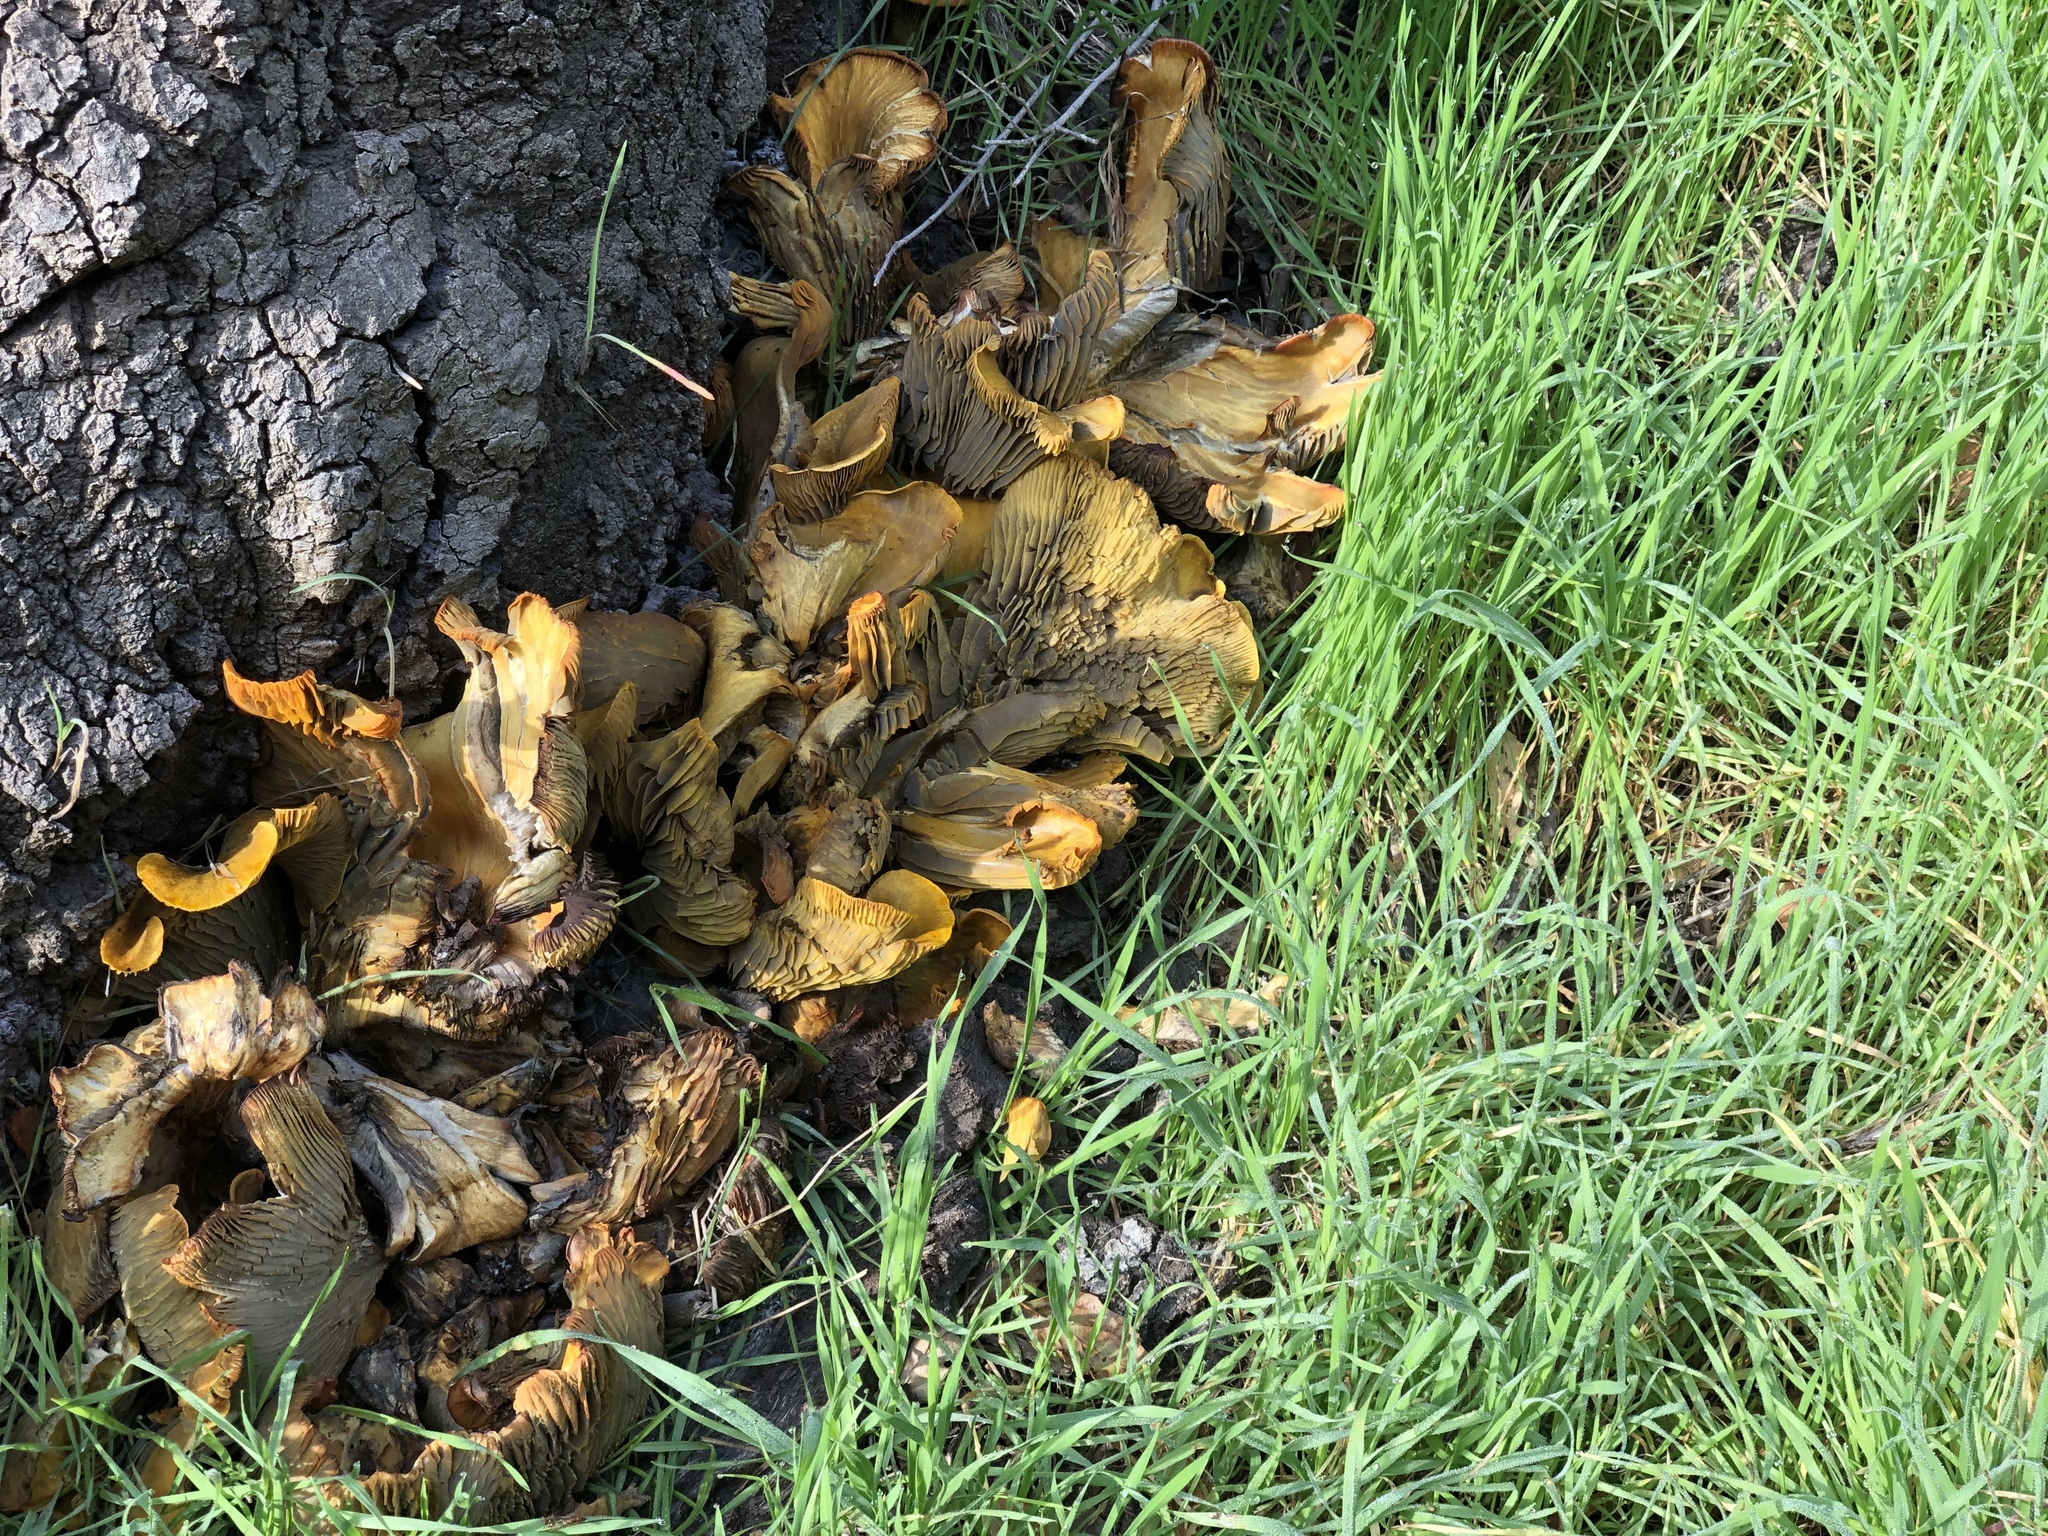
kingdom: Fungi
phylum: Basidiomycota
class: Agaricomycetes
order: Agaricales
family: Omphalotaceae
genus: Omphalotus
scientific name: Omphalotus olivascens
